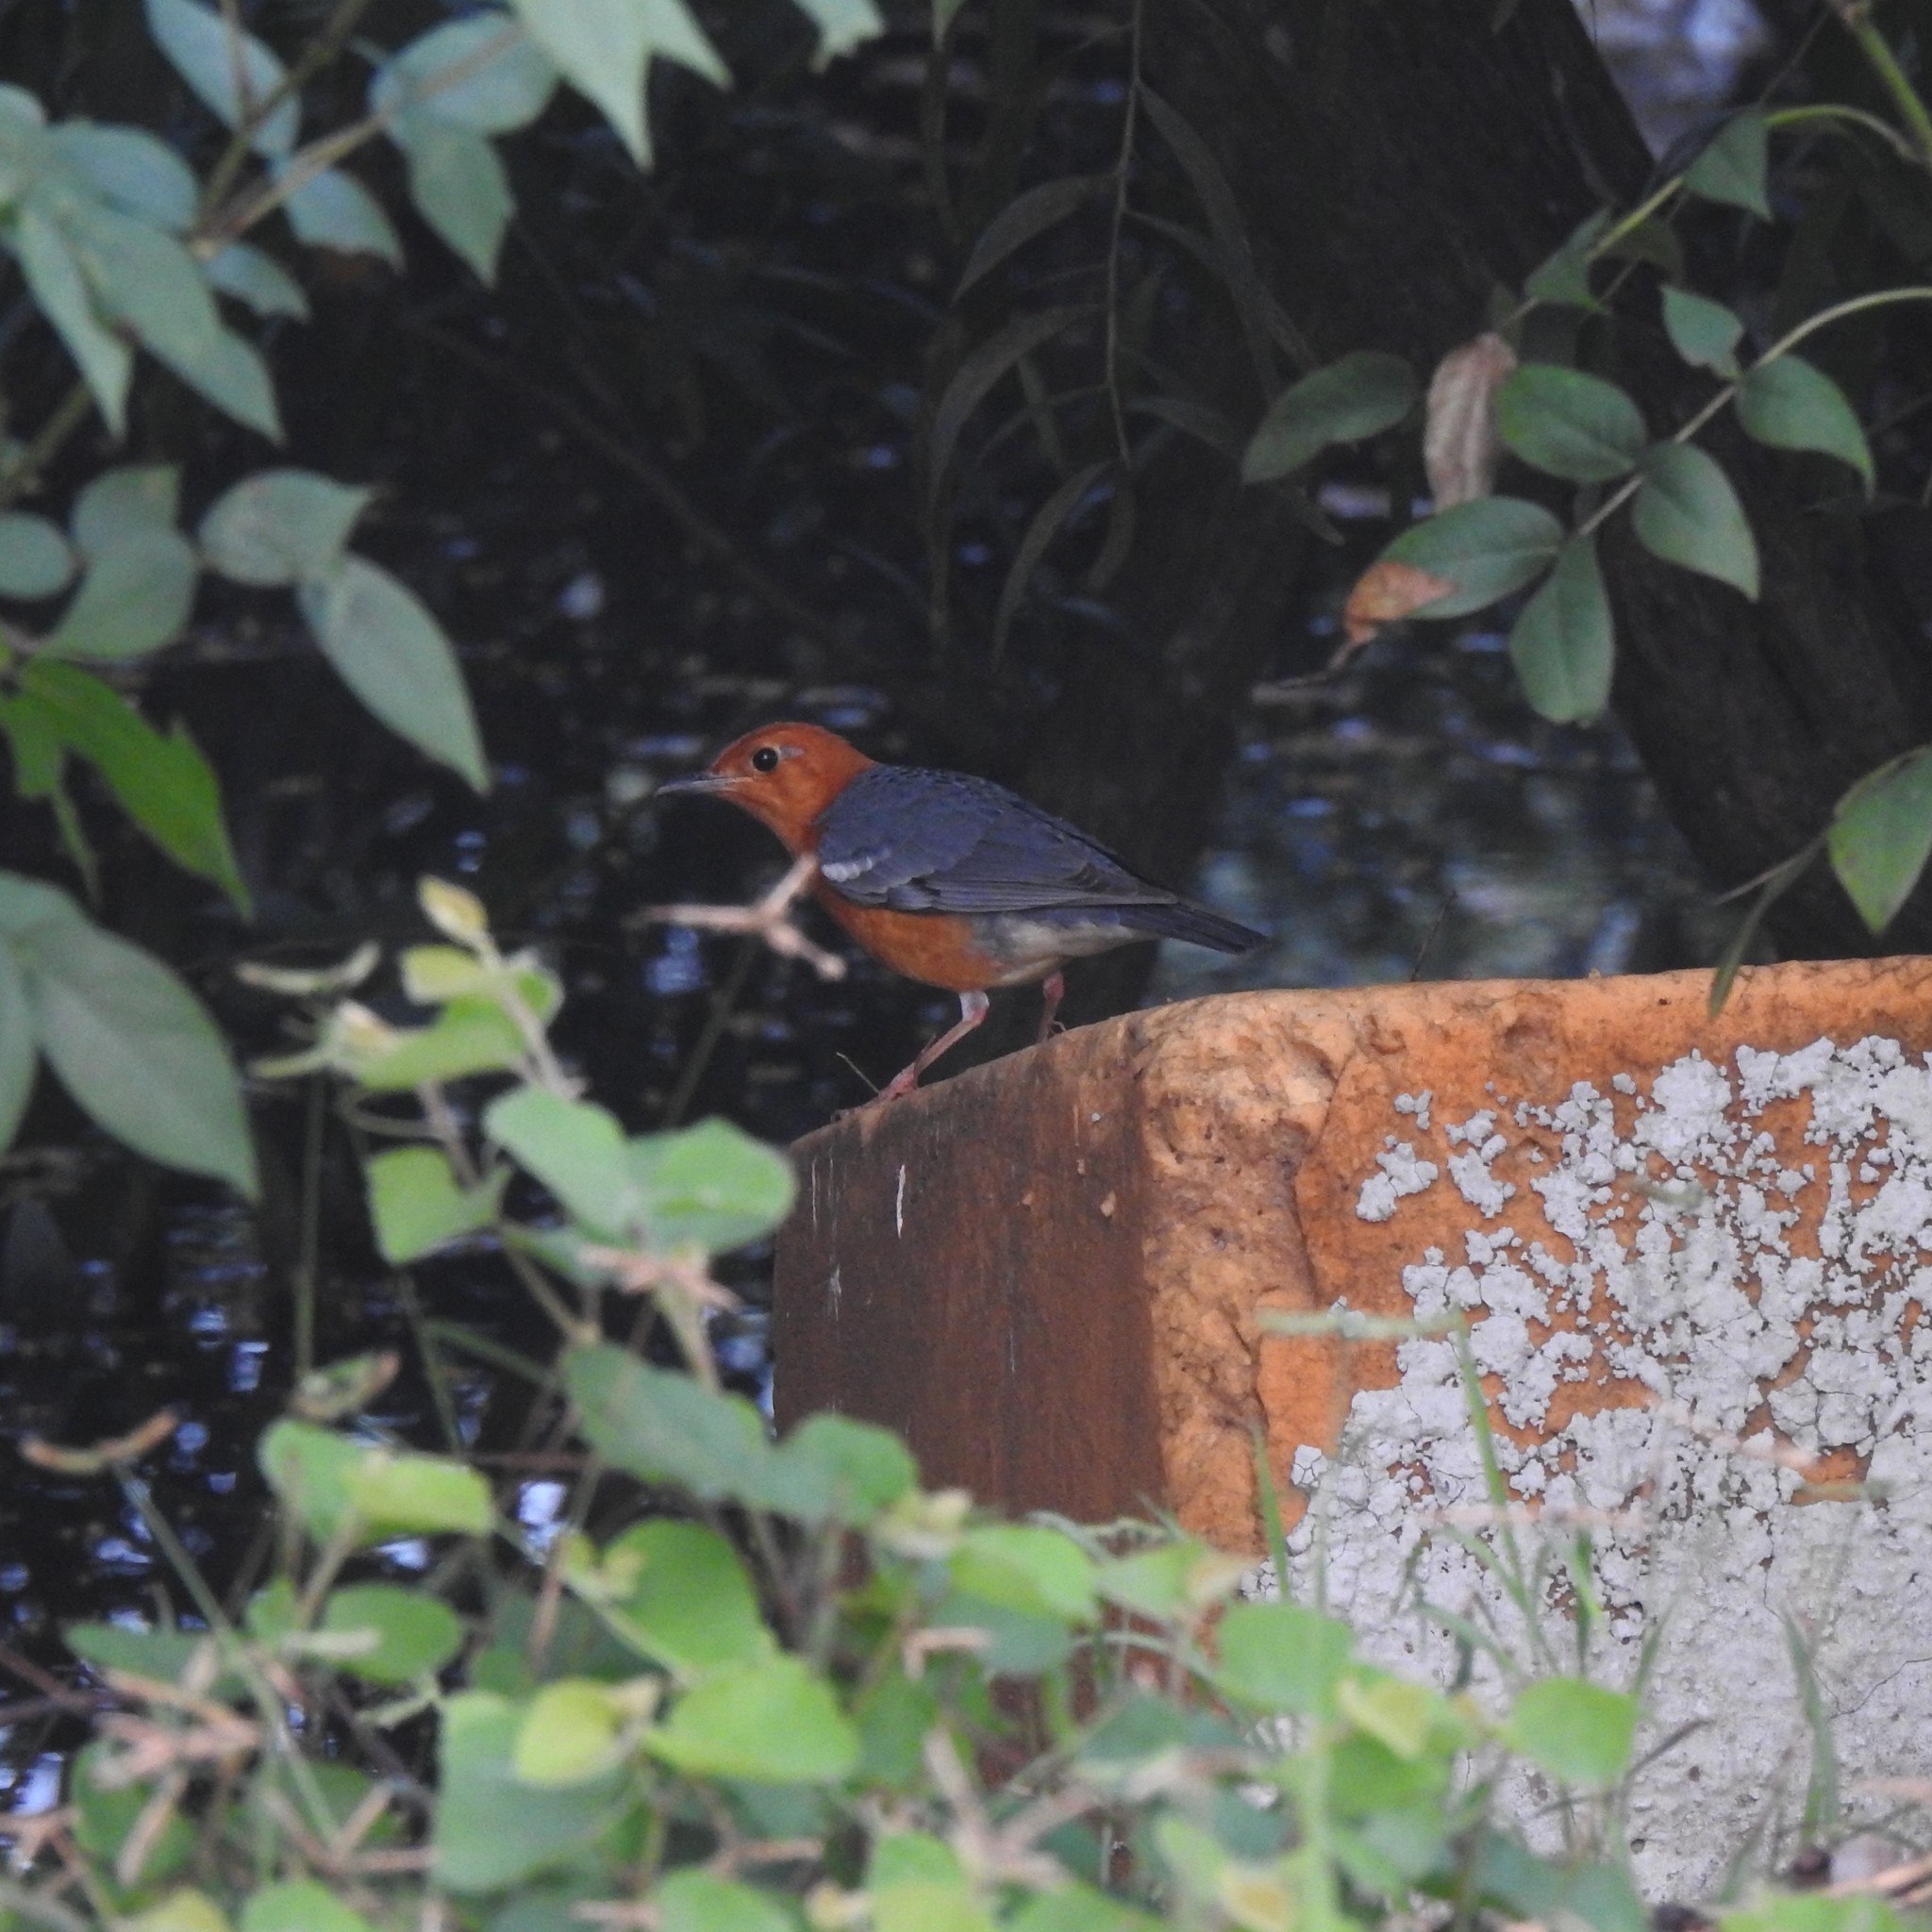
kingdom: Animalia
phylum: Chordata
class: Aves
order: Passeriformes
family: Turdidae
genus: Geokichla
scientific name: Geokichla citrina
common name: Orange-headed thrush
